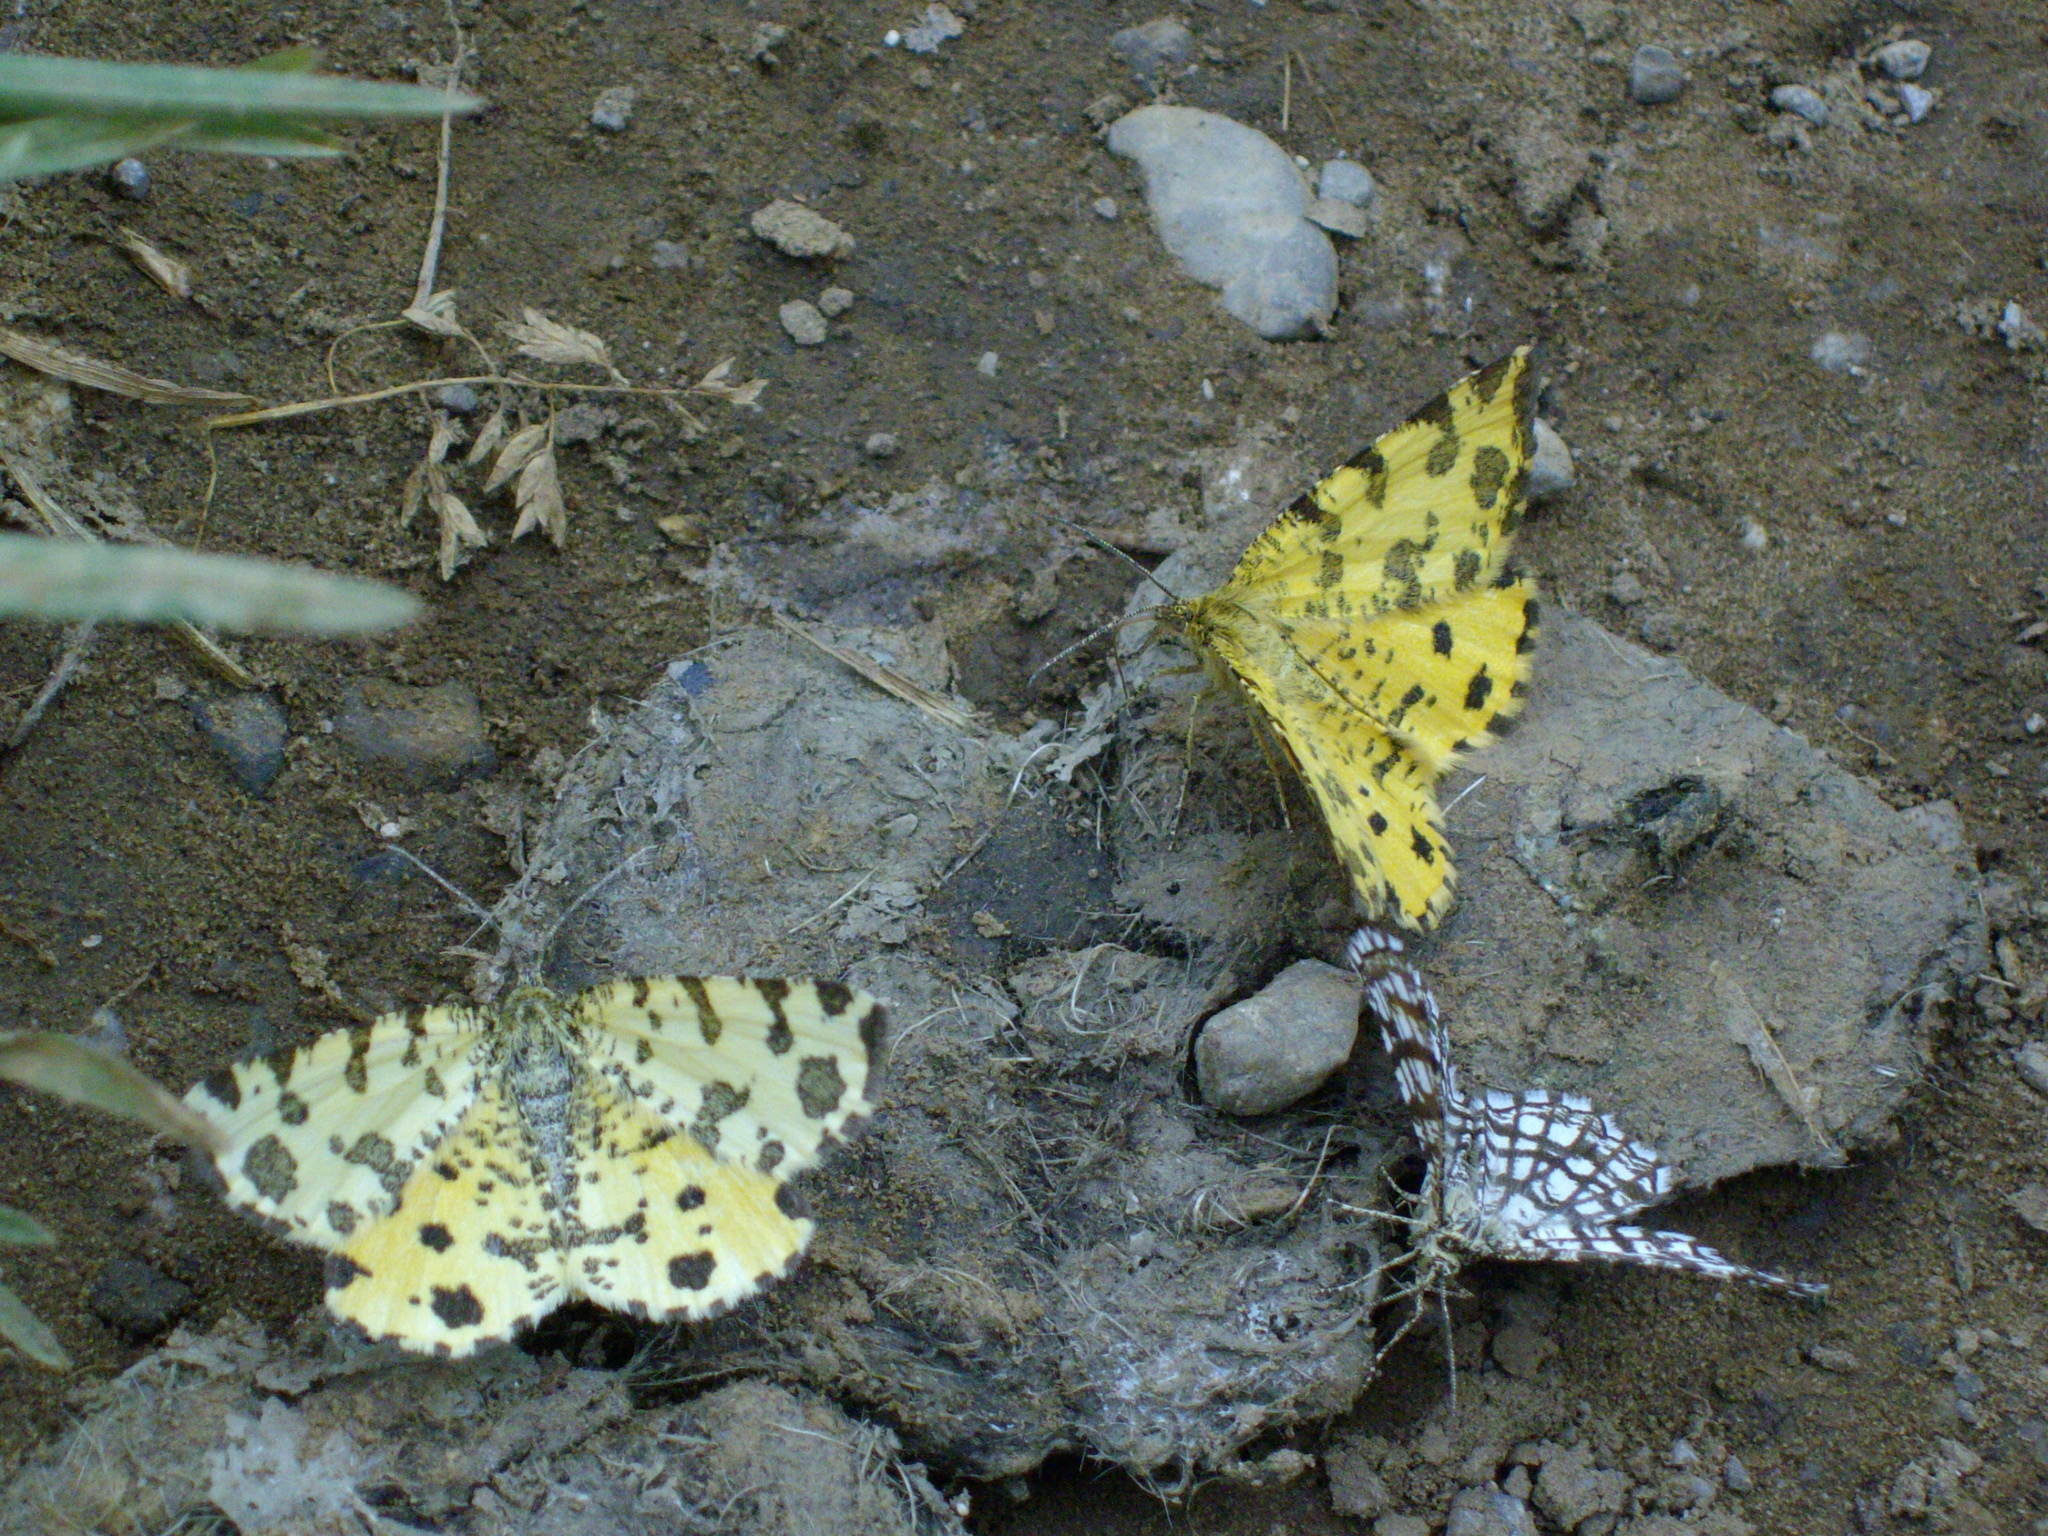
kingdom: Animalia
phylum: Arthropoda
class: Insecta
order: Lepidoptera
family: Geometridae
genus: Pseudopanthera
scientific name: Pseudopanthera macularia
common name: Speckled yellow
